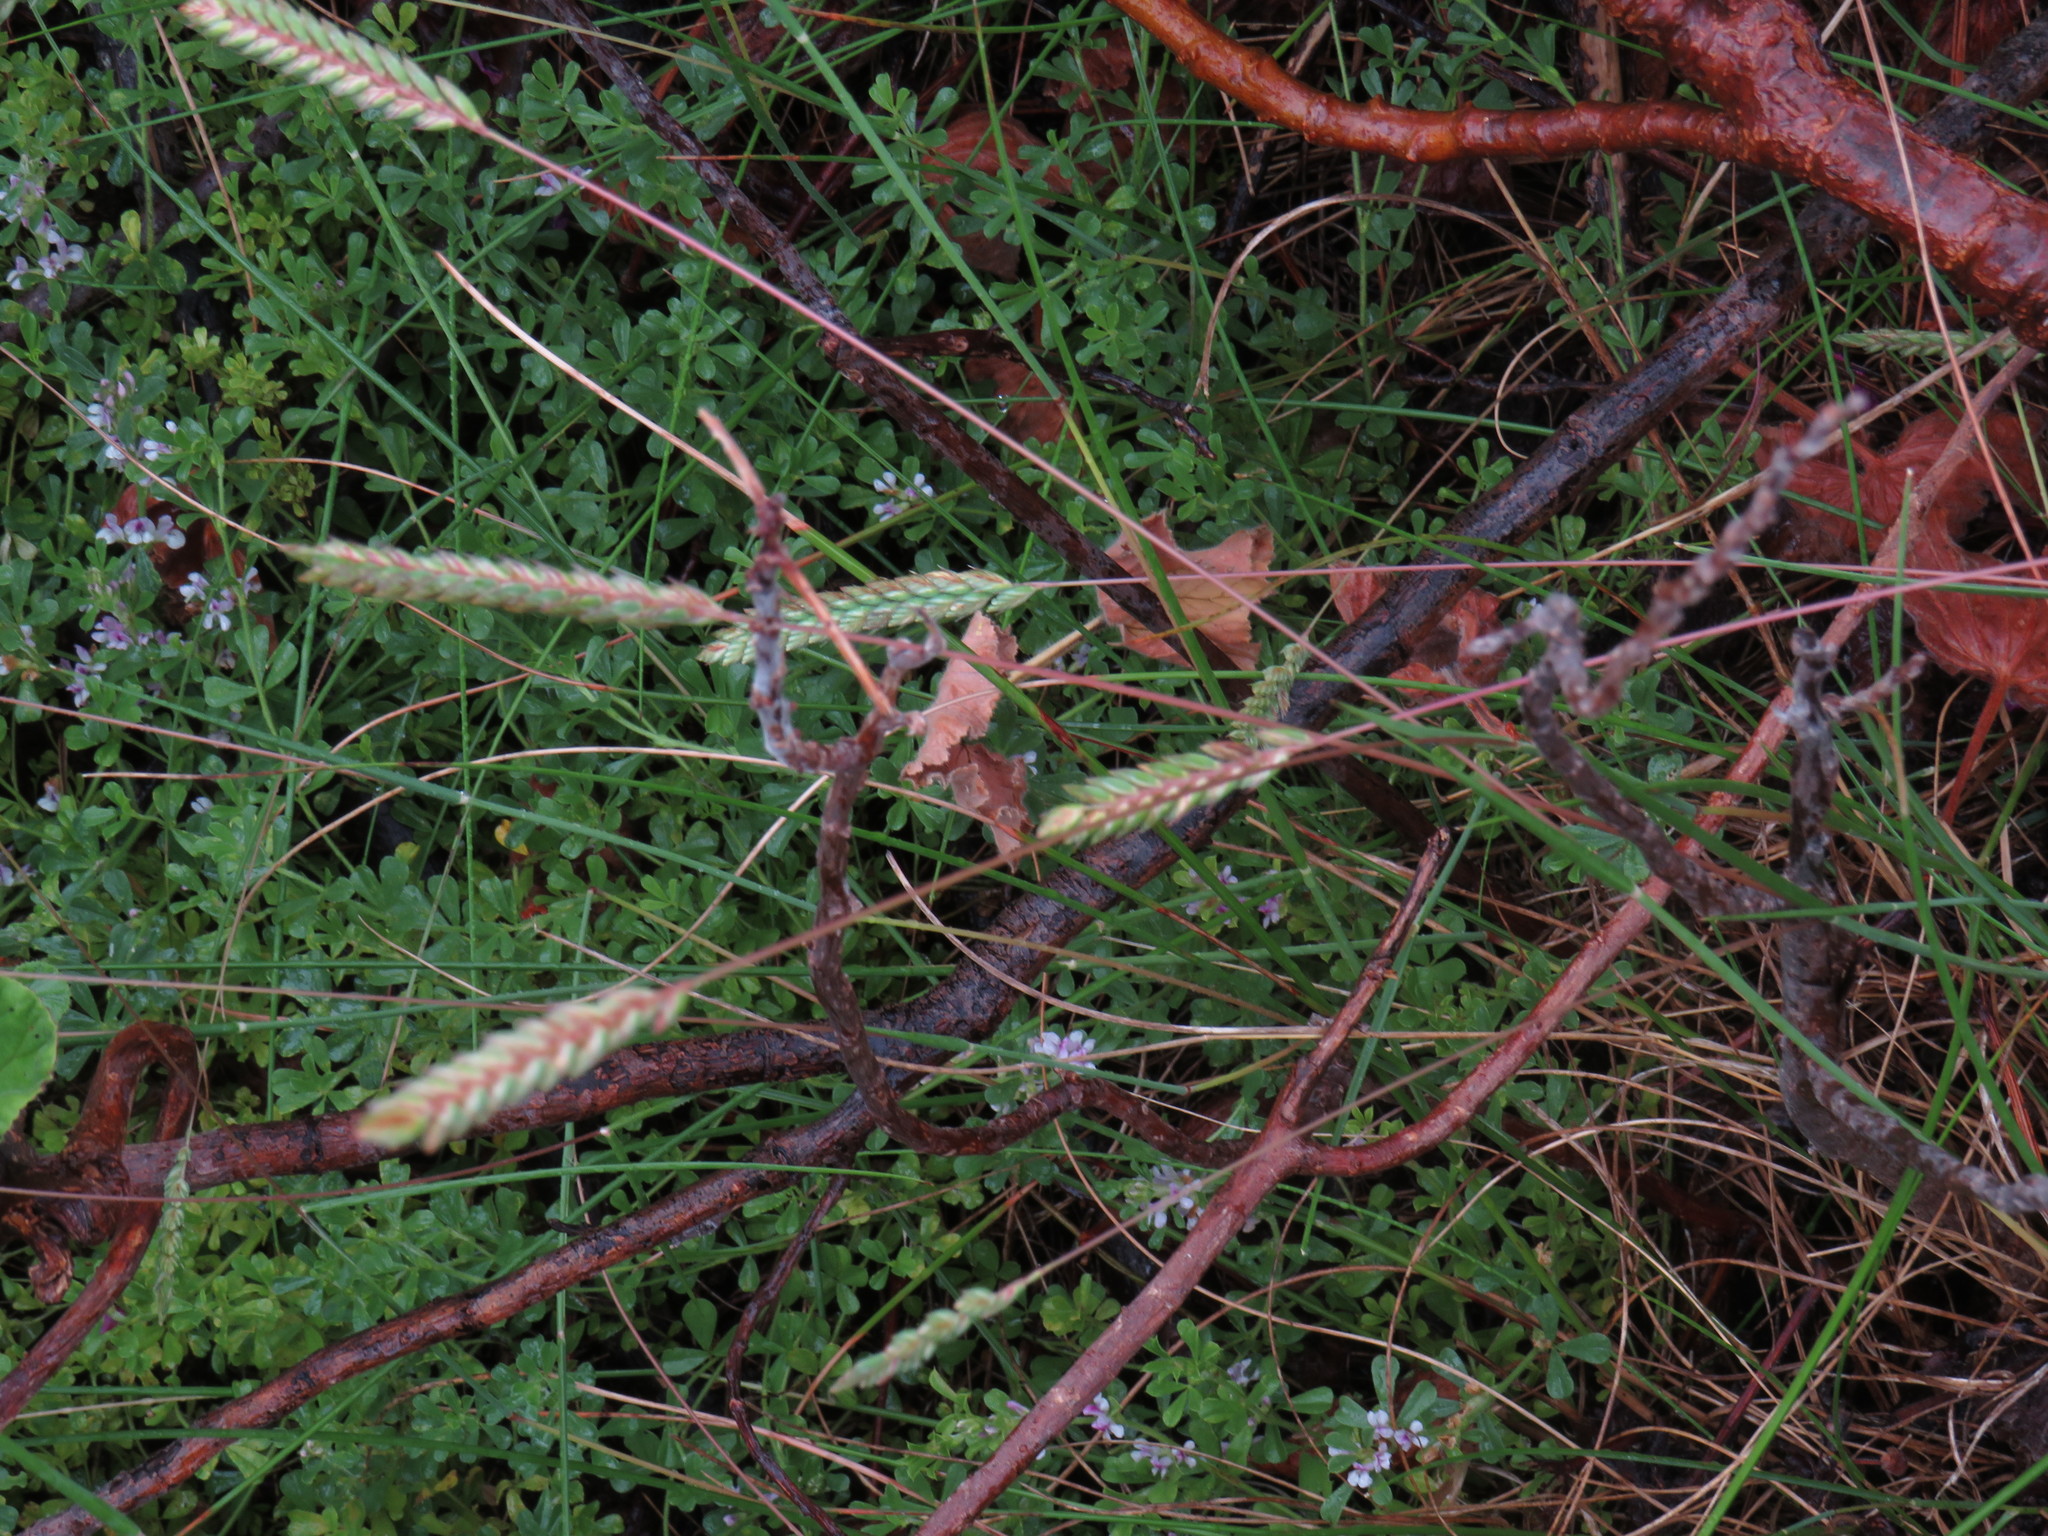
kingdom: Plantae
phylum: Tracheophyta
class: Liliopsida
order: Poales
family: Poaceae
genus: Tribolium
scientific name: Tribolium uniolae
